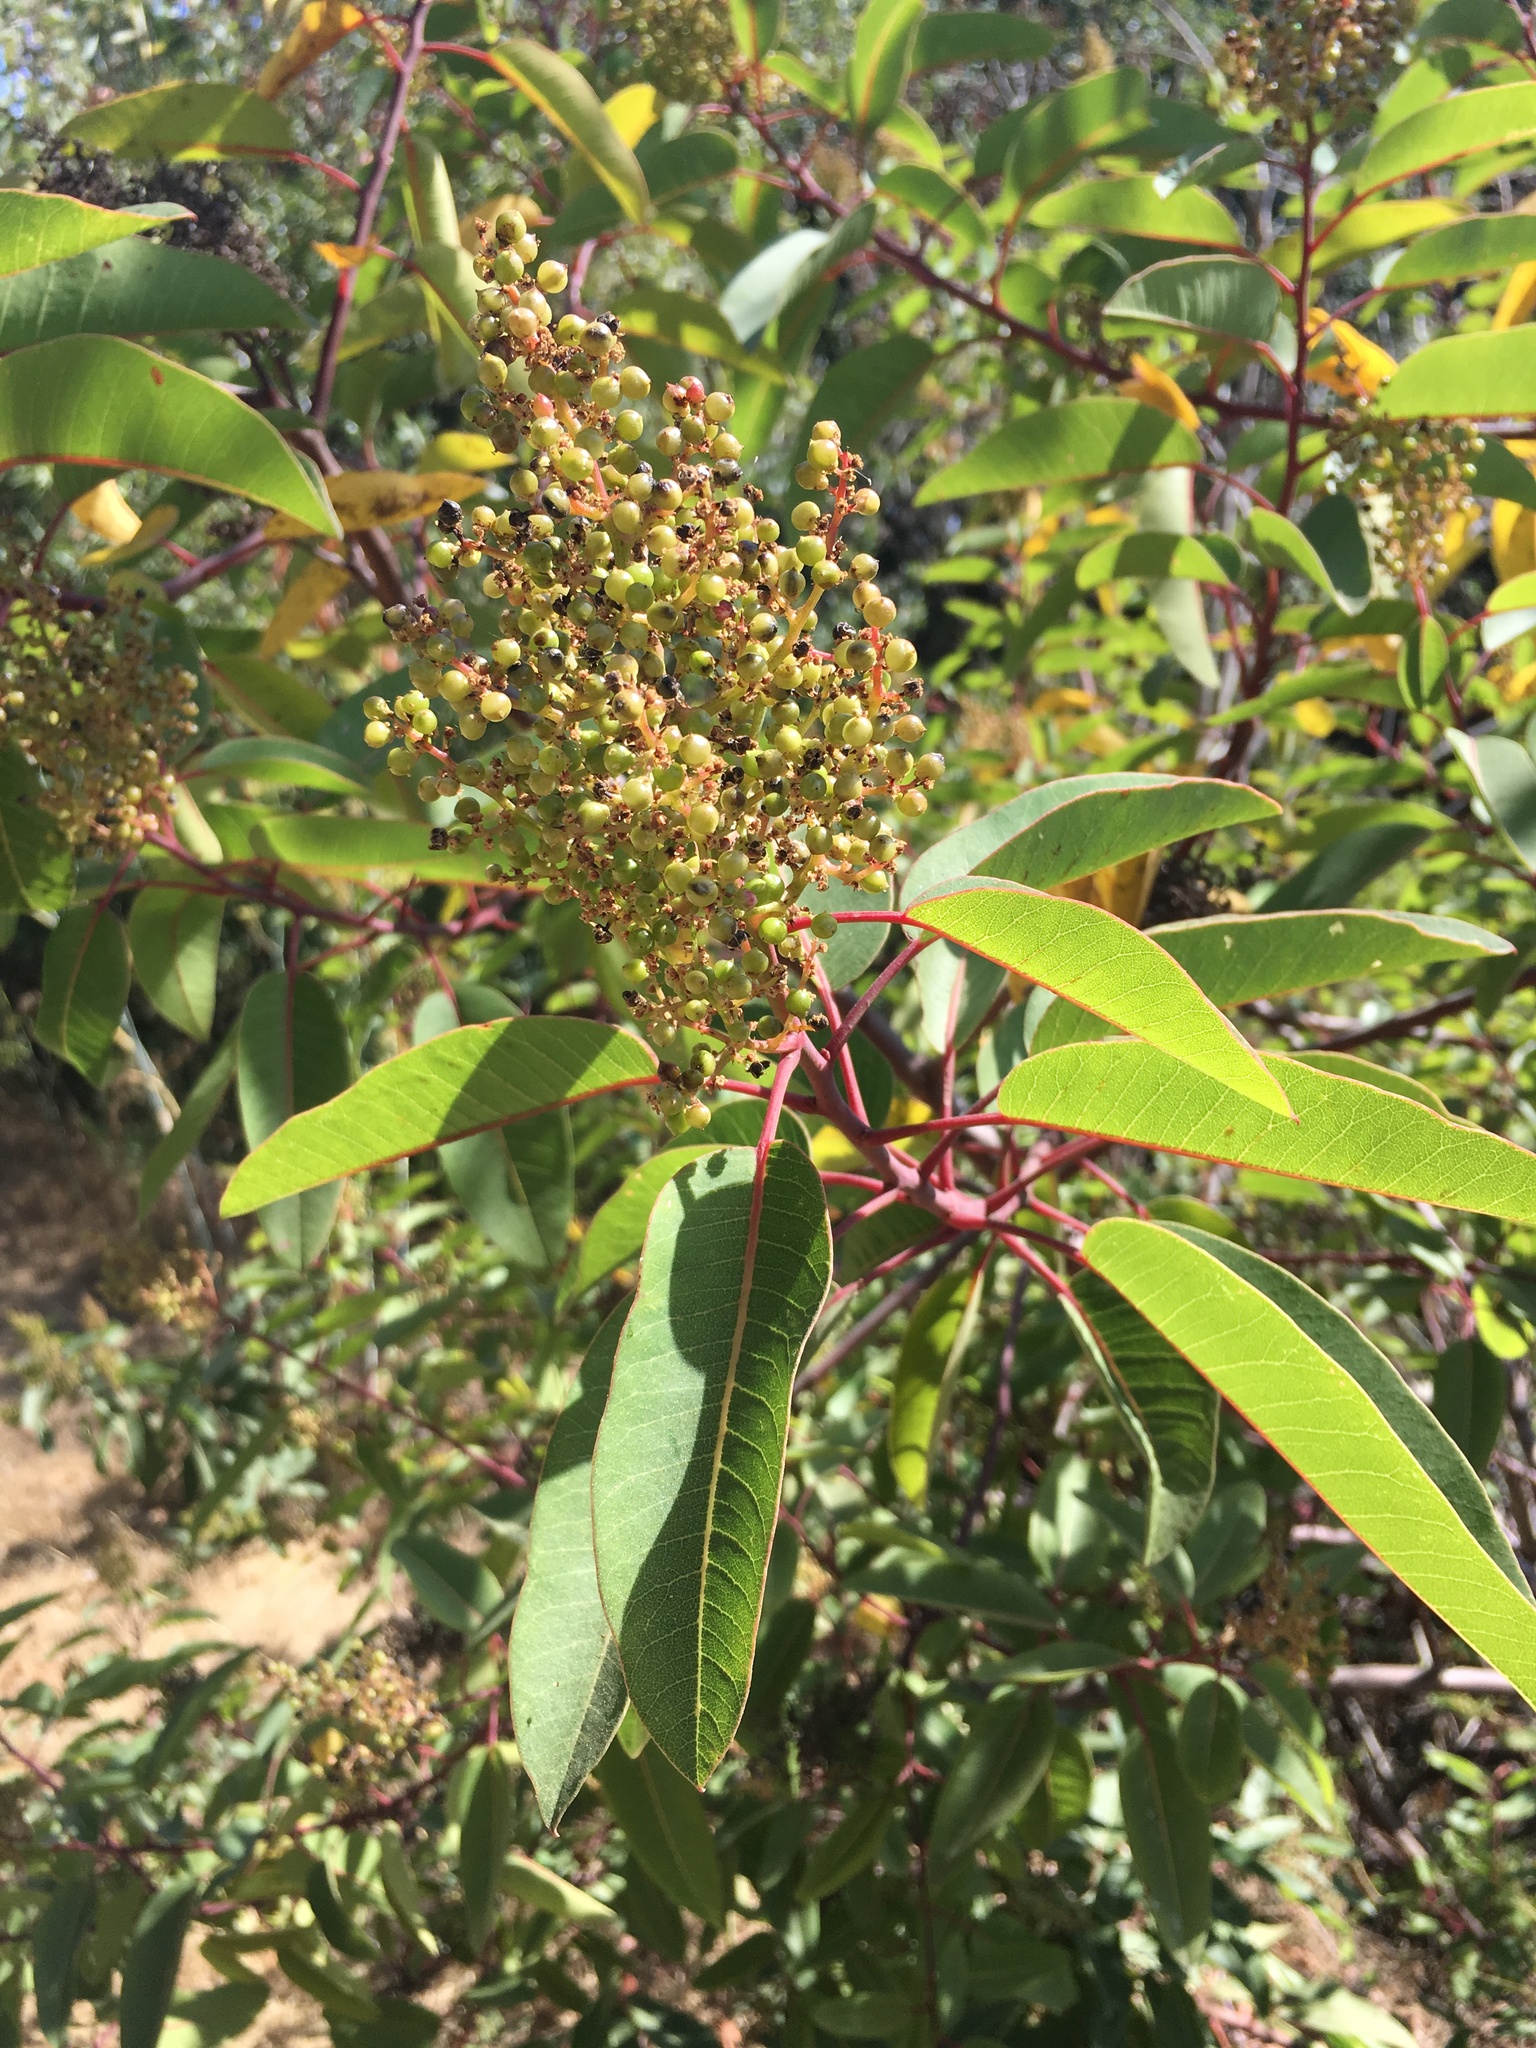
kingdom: Plantae
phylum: Tracheophyta
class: Magnoliopsida
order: Sapindales
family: Anacardiaceae
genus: Malosma
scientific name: Malosma laurina
